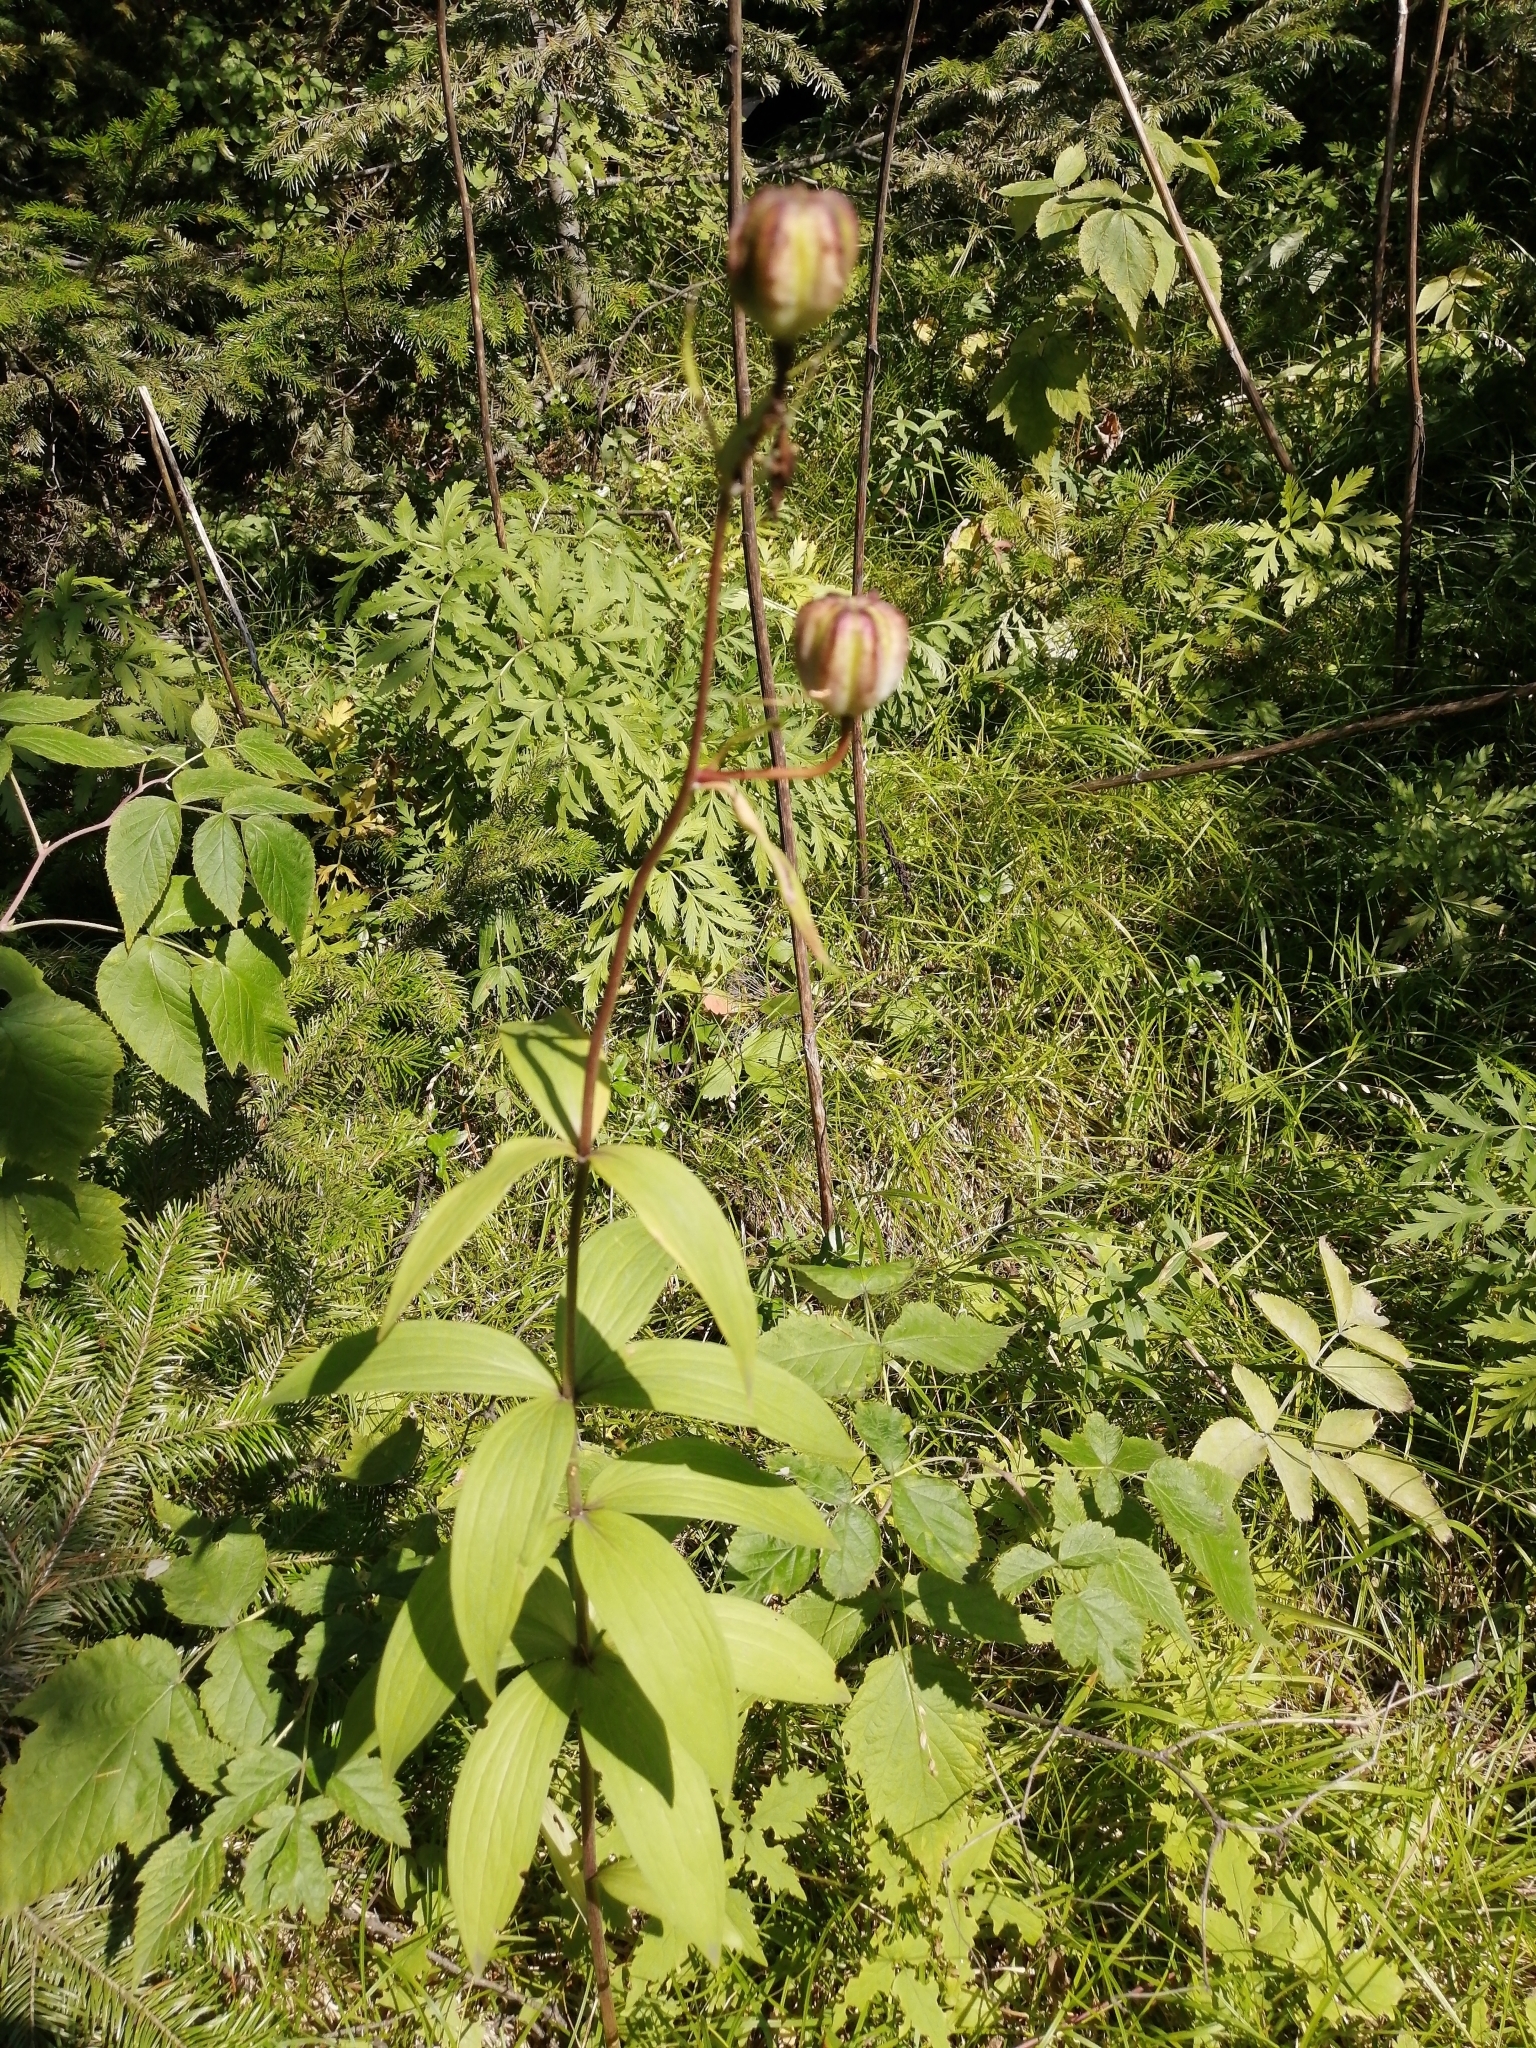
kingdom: Plantae
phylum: Tracheophyta
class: Liliopsida
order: Liliales
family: Liliaceae
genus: Lilium
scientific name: Lilium martagon
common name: Martagon lily
